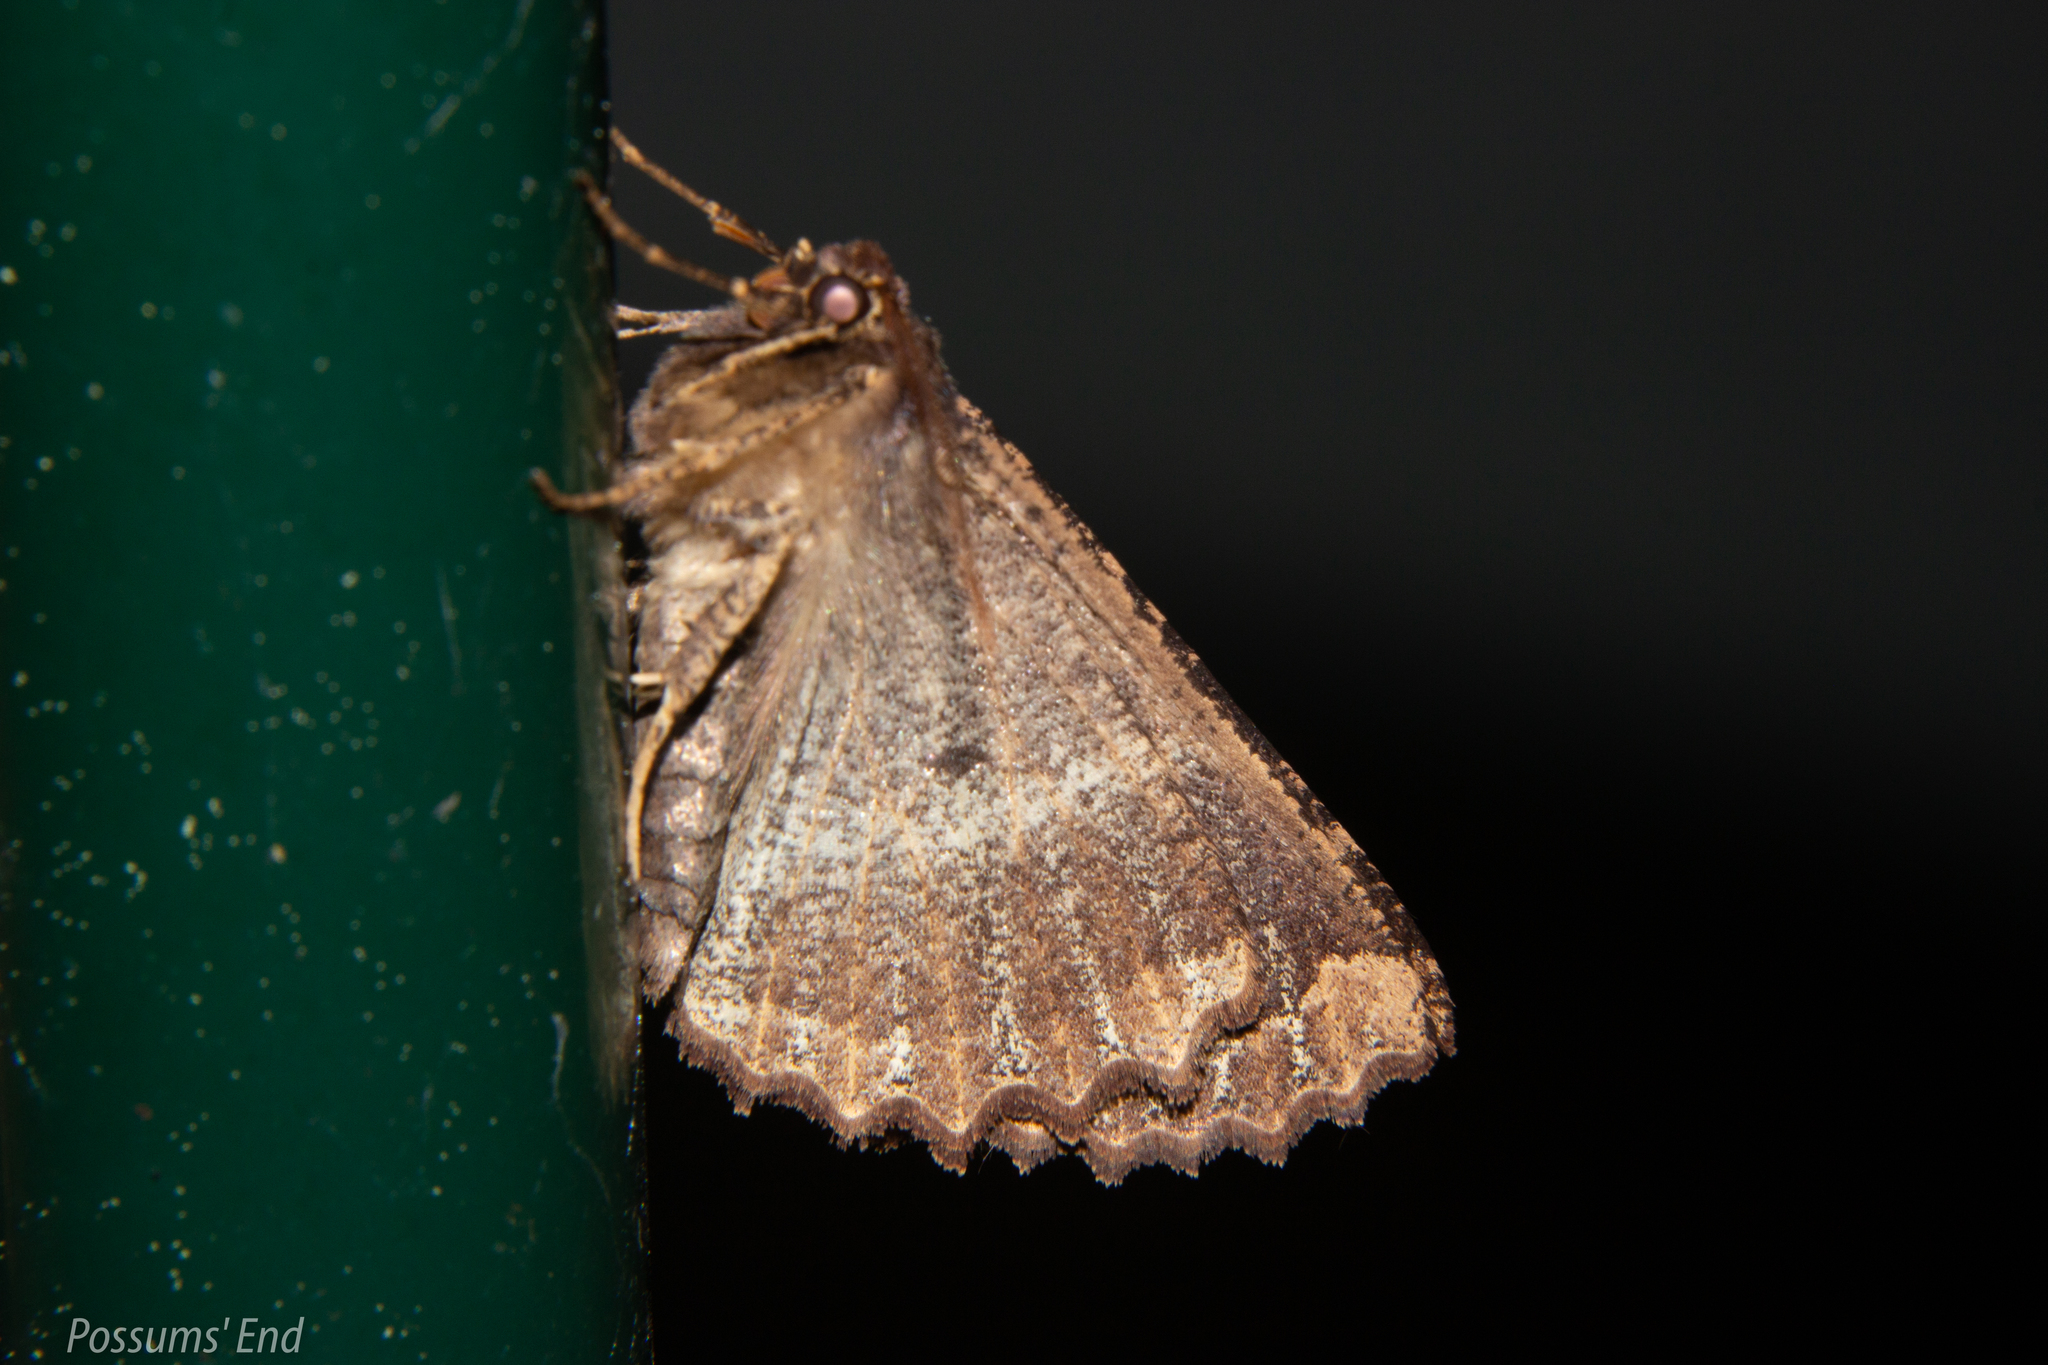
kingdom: Animalia
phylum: Arthropoda
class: Insecta
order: Lepidoptera
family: Geometridae
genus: Gellonia
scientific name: Gellonia dejectaria
